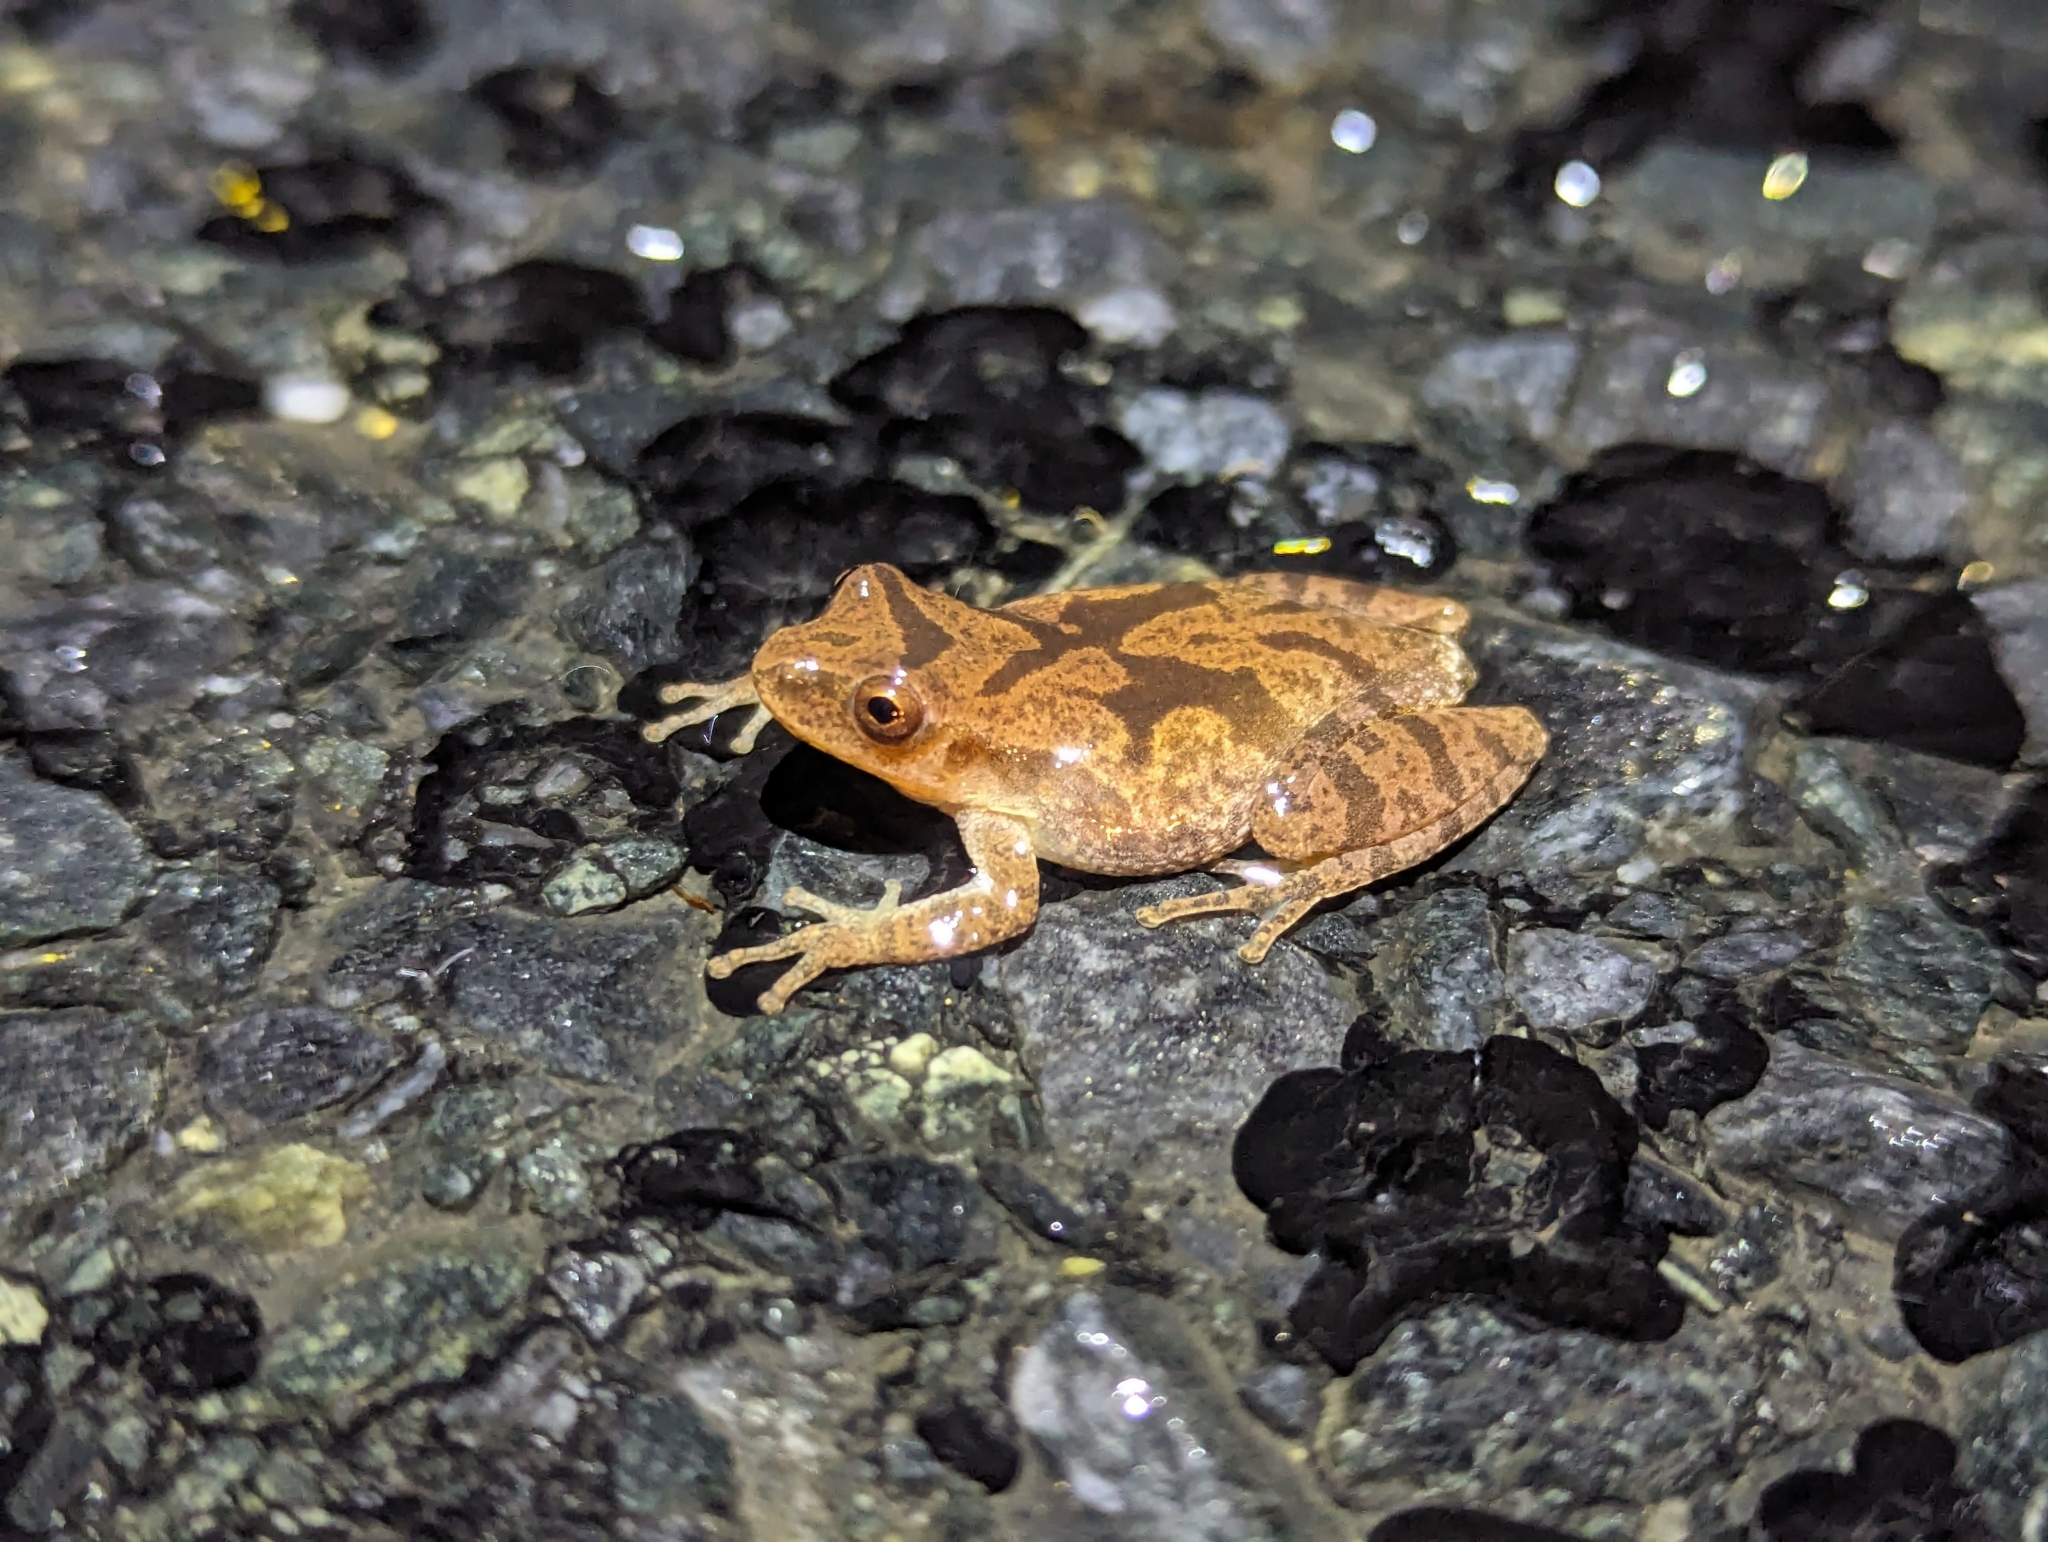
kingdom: Animalia
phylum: Chordata
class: Amphibia
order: Anura
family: Hylidae
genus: Pseudacris
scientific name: Pseudacris crucifer
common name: Spring peeper
